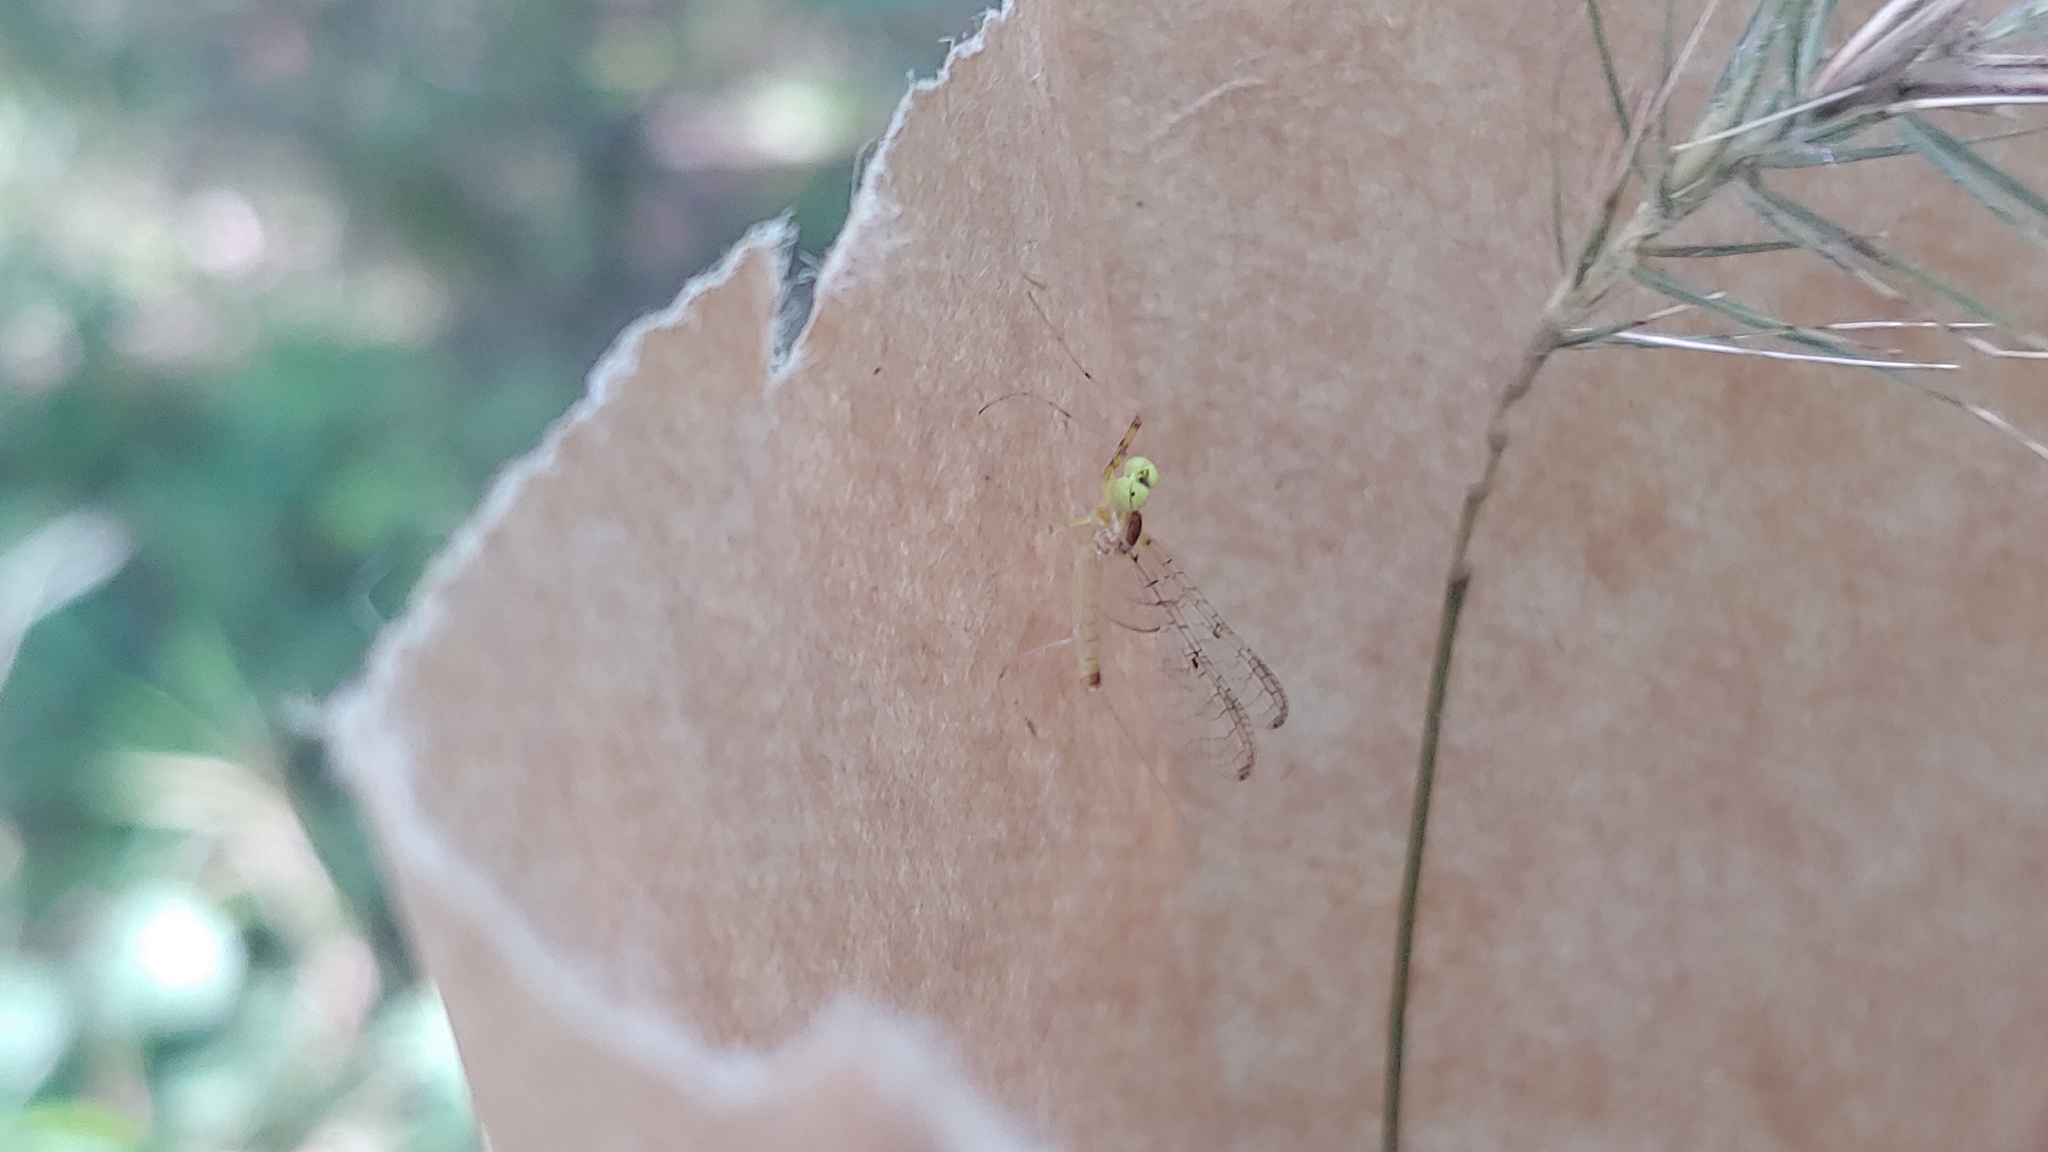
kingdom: Animalia
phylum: Arthropoda
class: Insecta
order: Ephemeroptera
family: Heptageniidae
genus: Stenacron
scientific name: Stenacron interpunctatum
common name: Orange cahill
